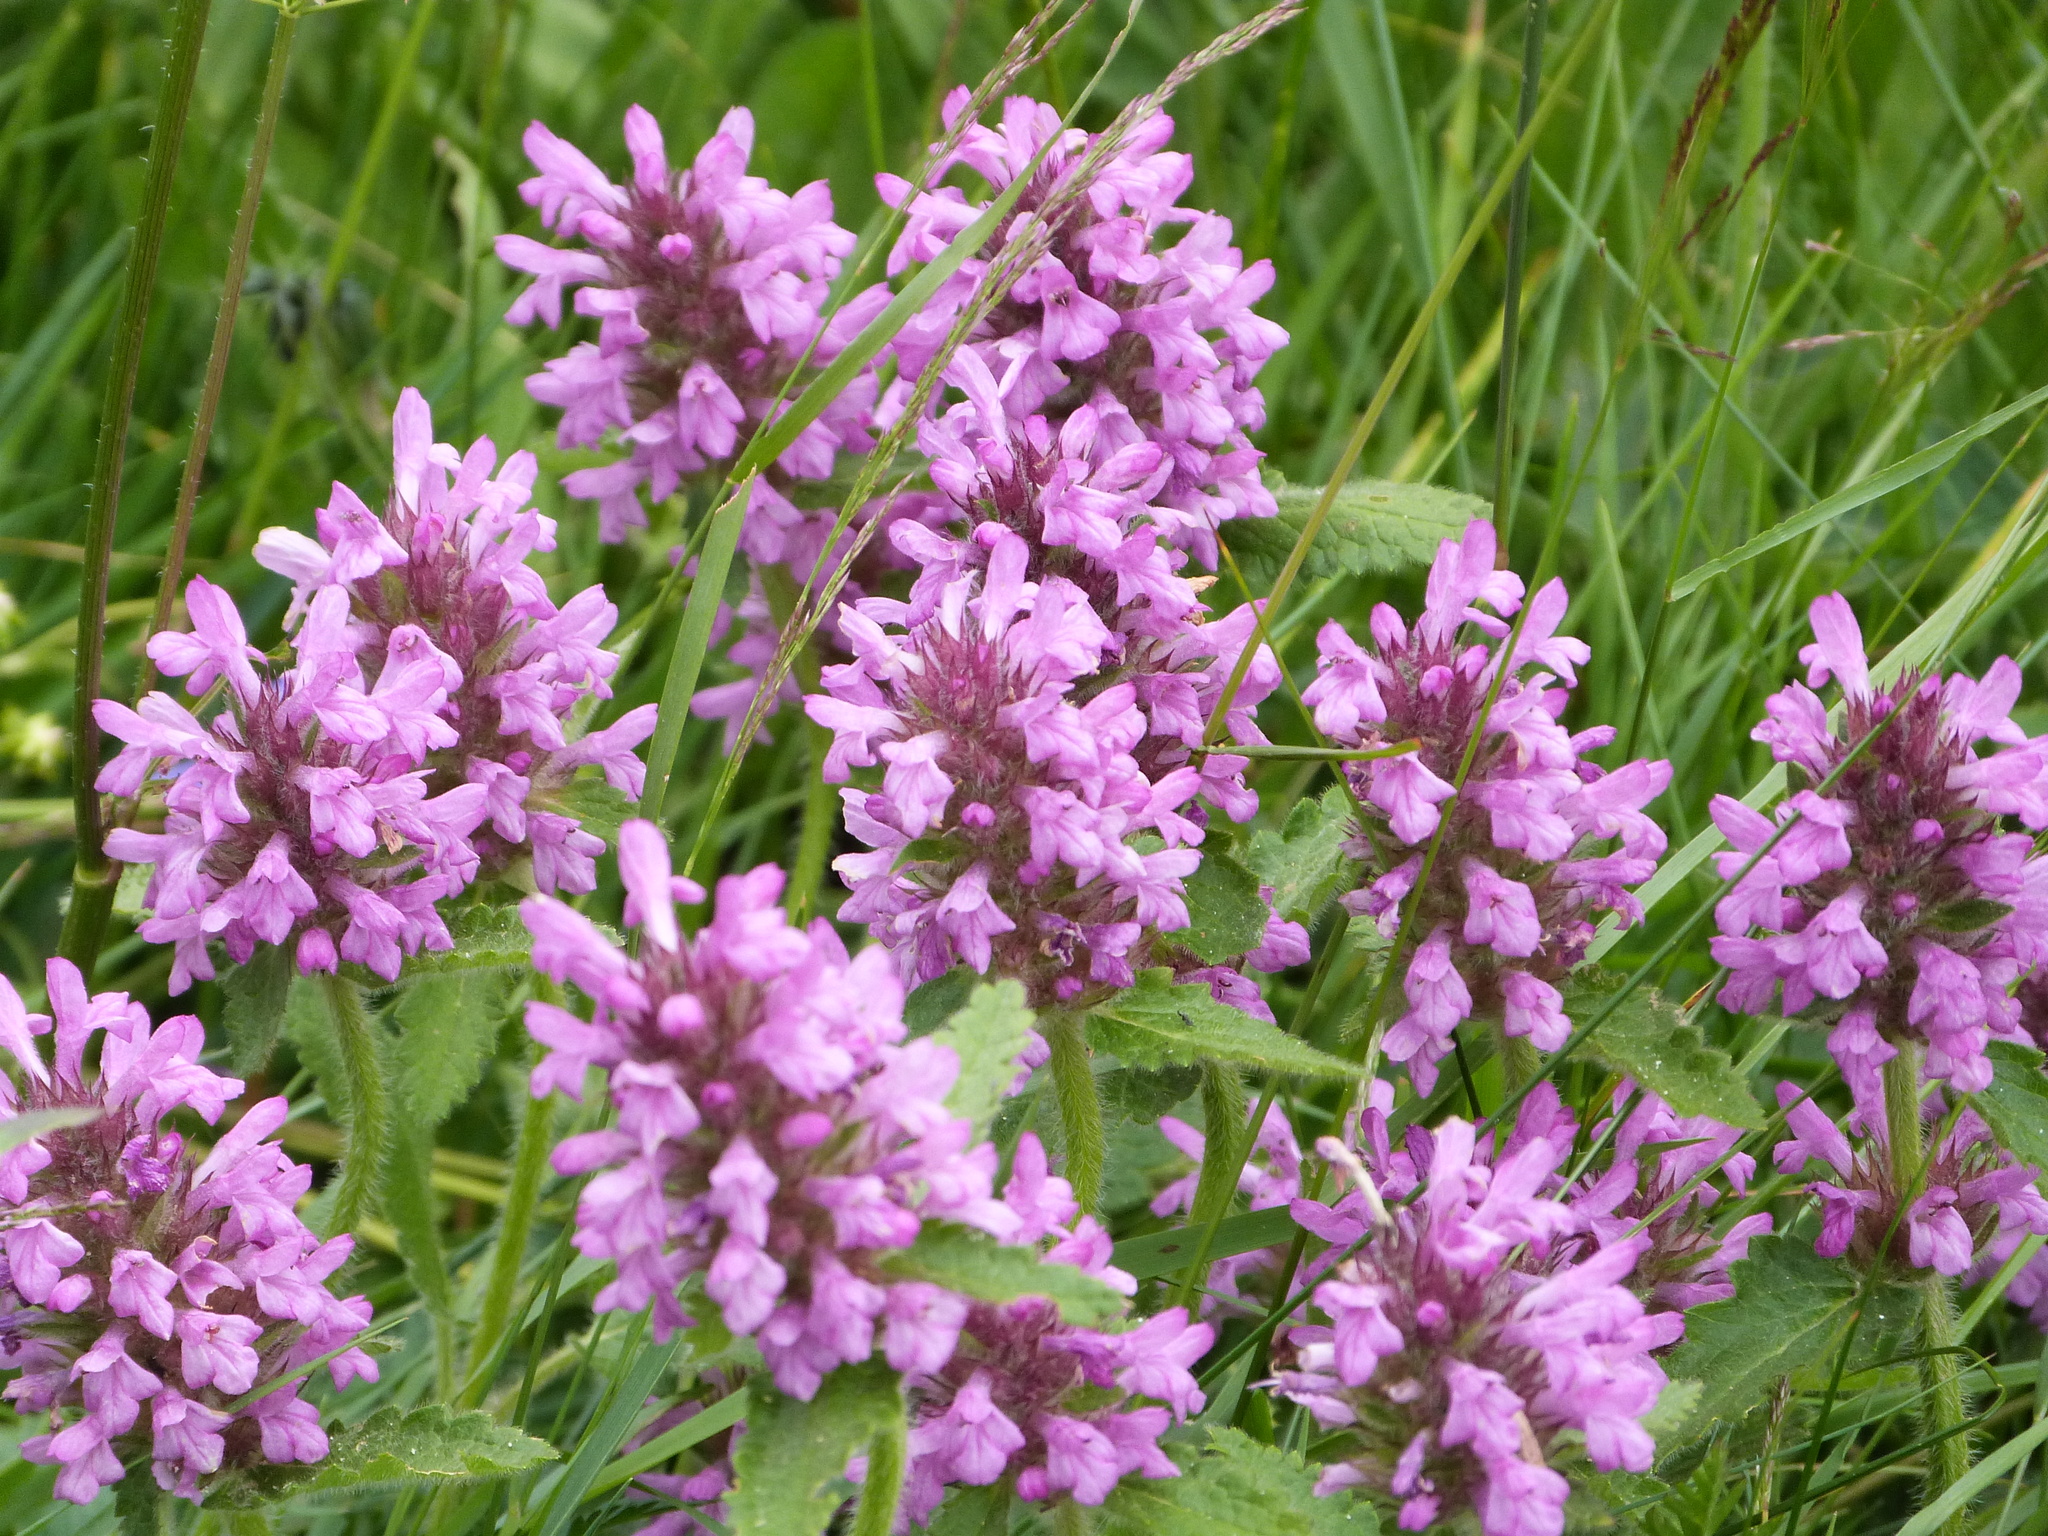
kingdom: Plantae
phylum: Tracheophyta
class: Magnoliopsida
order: Lamiales
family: Lamiaceae
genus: Betonica
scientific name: Betonica officinalis
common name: Bishop's-wort
